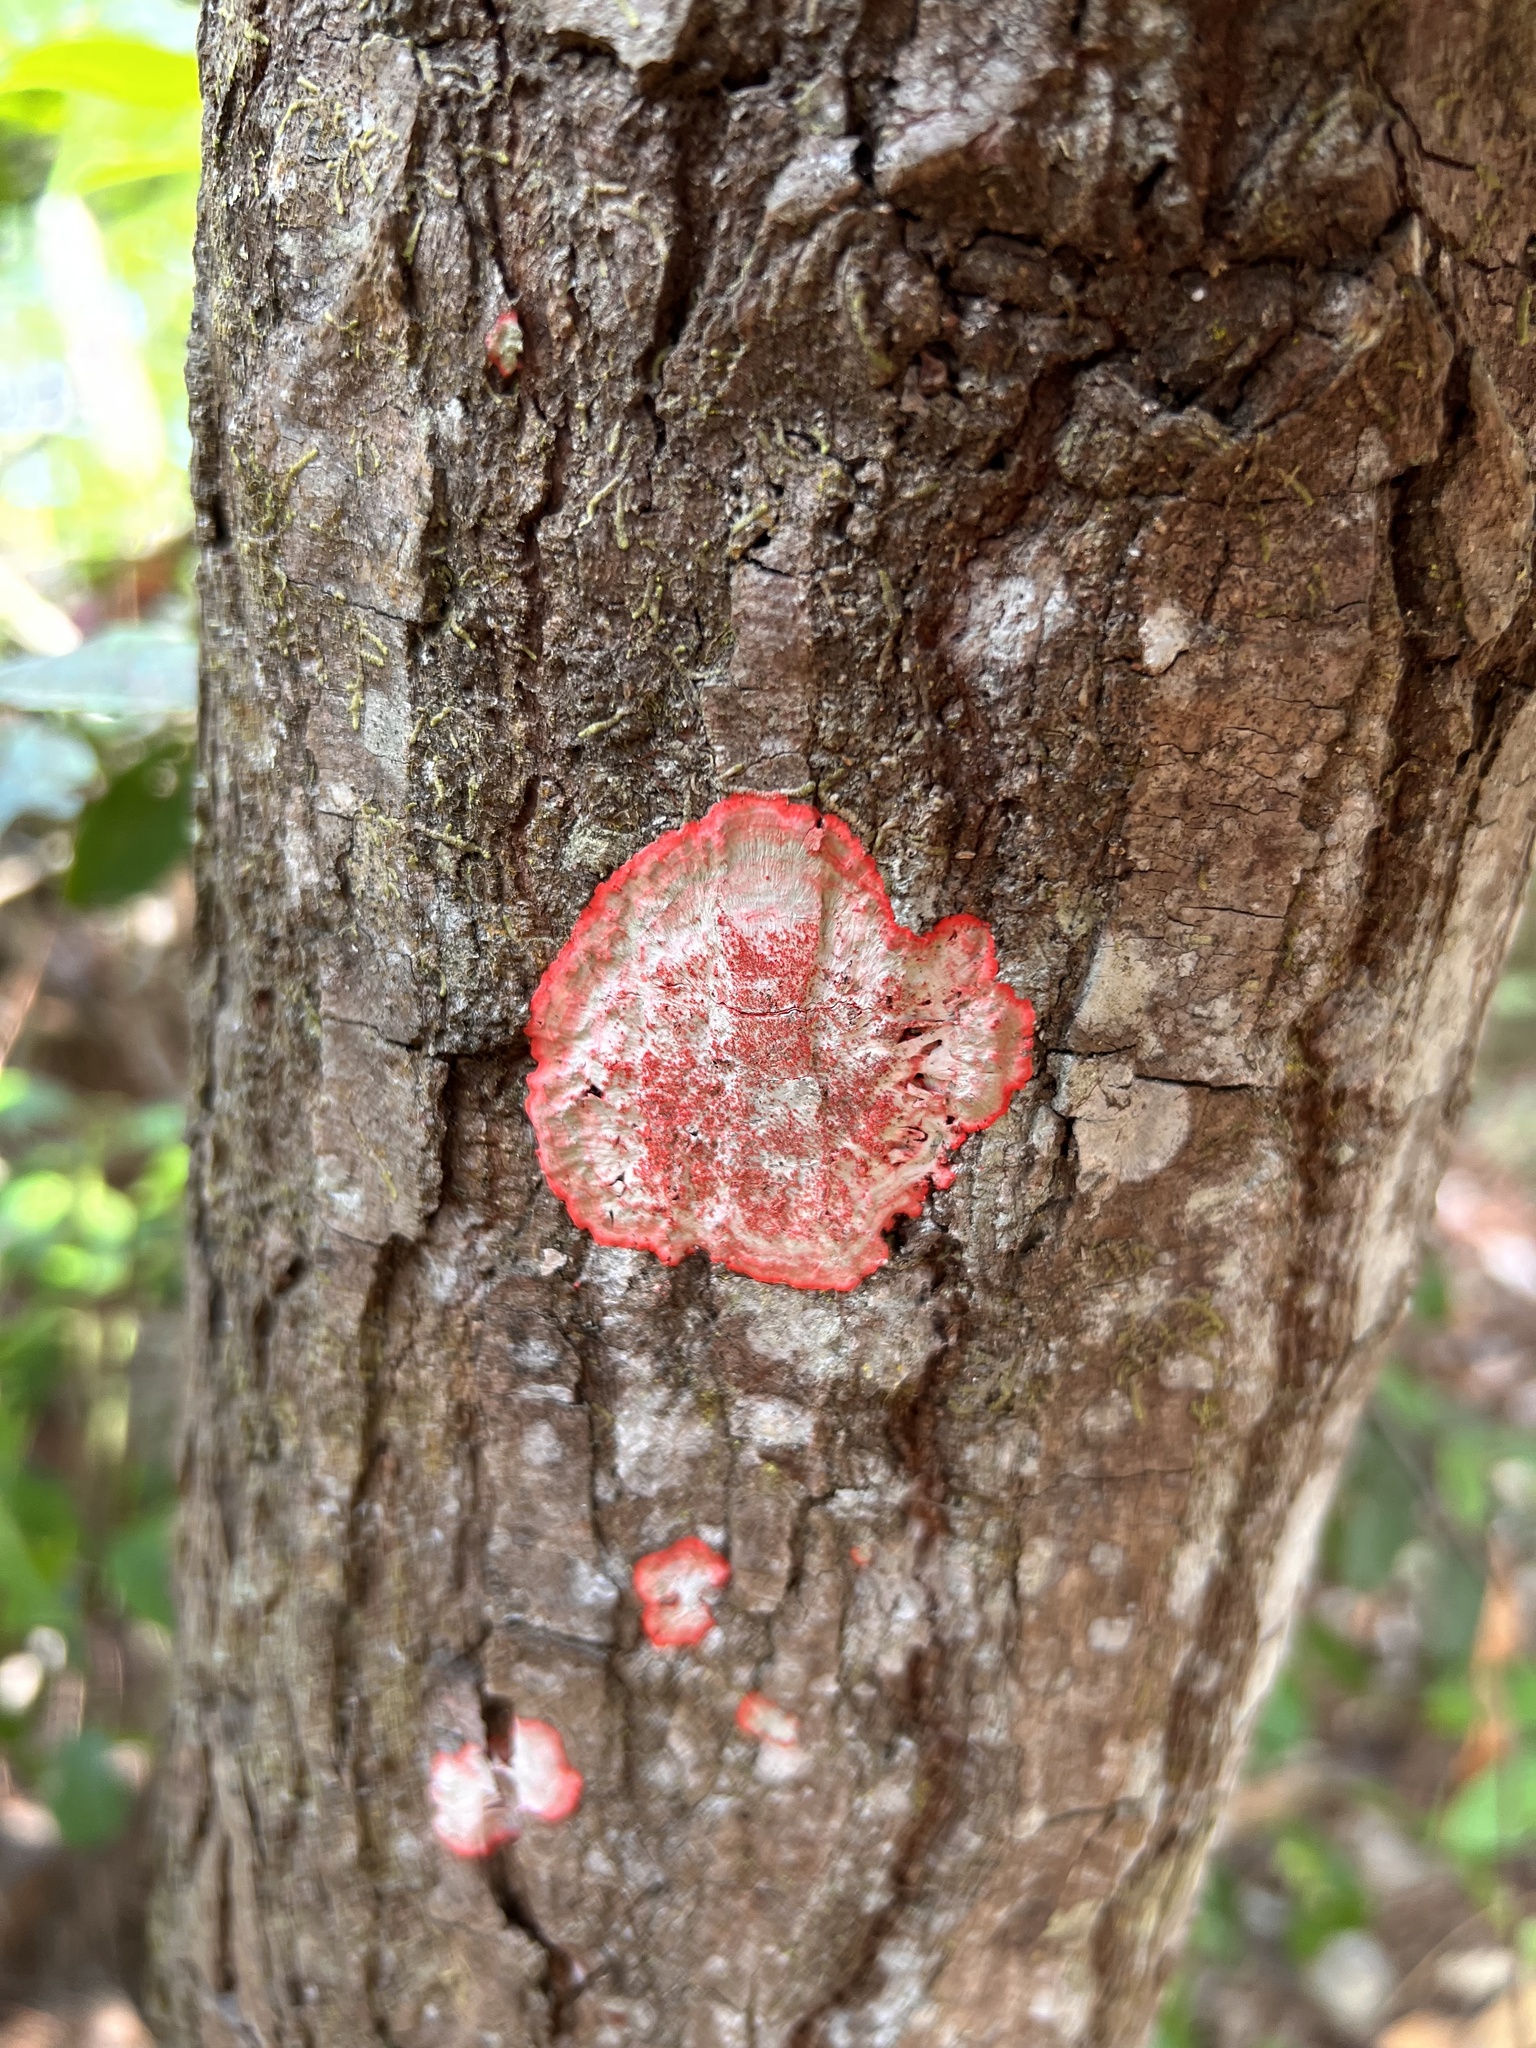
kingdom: Fungi
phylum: Ascomycota
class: Arthoniomycetes
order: Arthoniales
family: Arthoniaceae
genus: Herpothallon
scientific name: Herpothallon rubrocinctum
